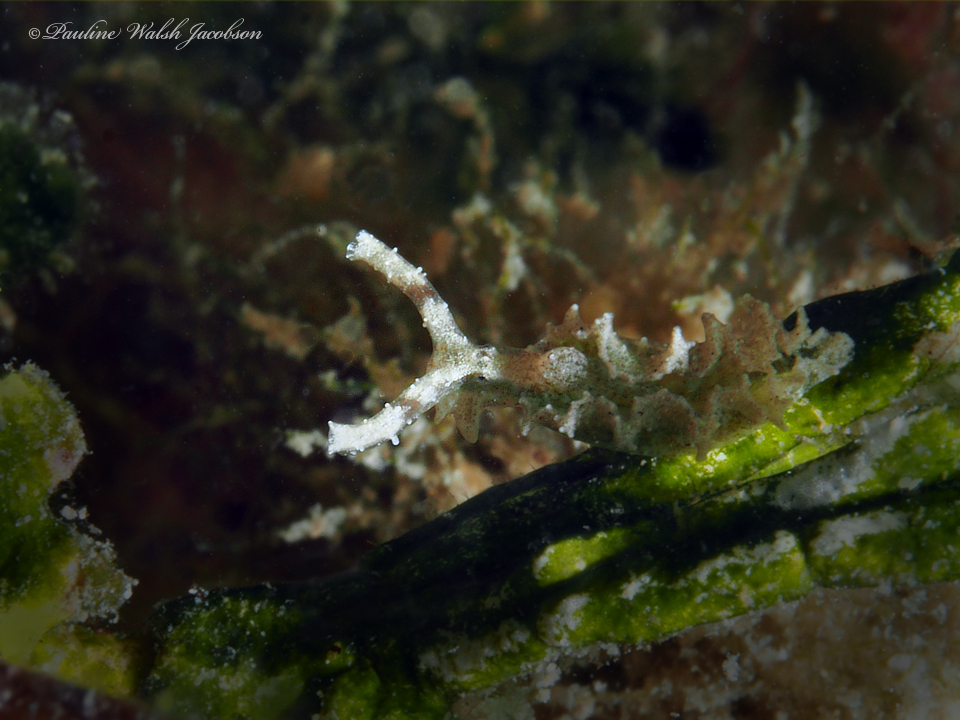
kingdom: Animalia
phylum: Mollusca
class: Gastropoda
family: Plakobranchidae
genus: Elysia
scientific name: Elysia papillosa
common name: Papillose elysia
